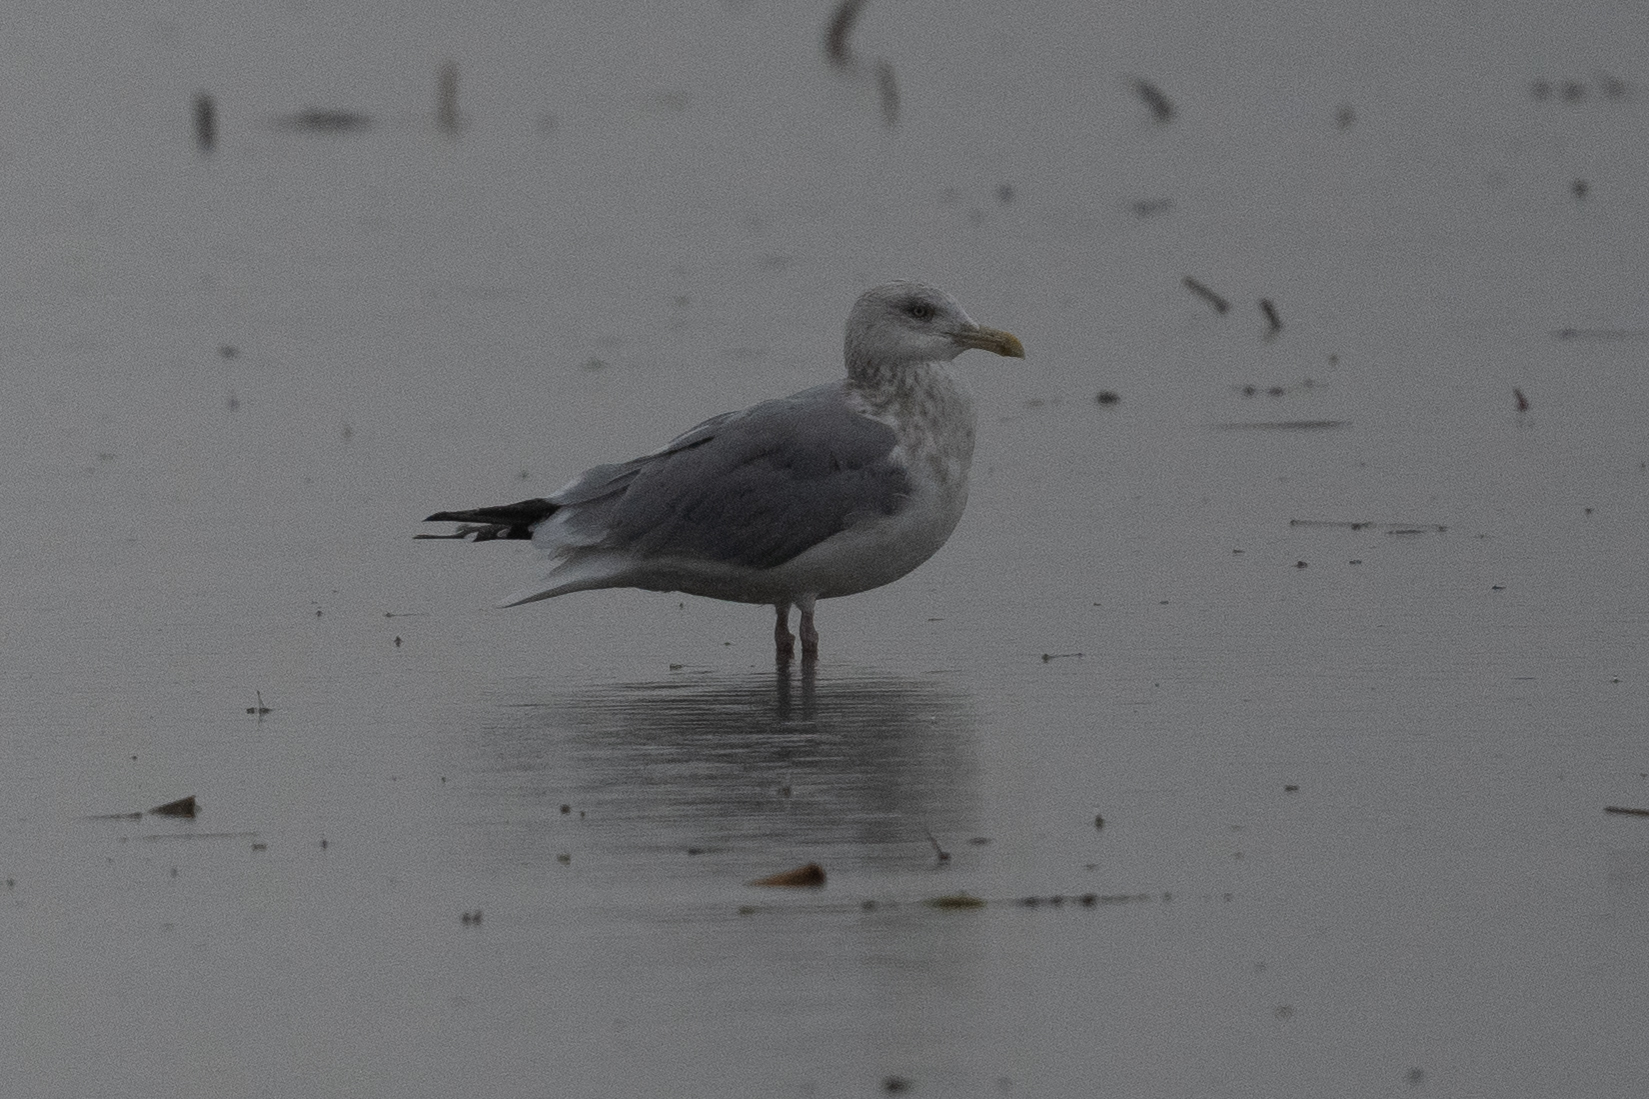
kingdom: Animalia
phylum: Chordata
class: Aves
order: Charadriiformes
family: Laridae
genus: Larus
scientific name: Larus argentatus
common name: Herring gull
